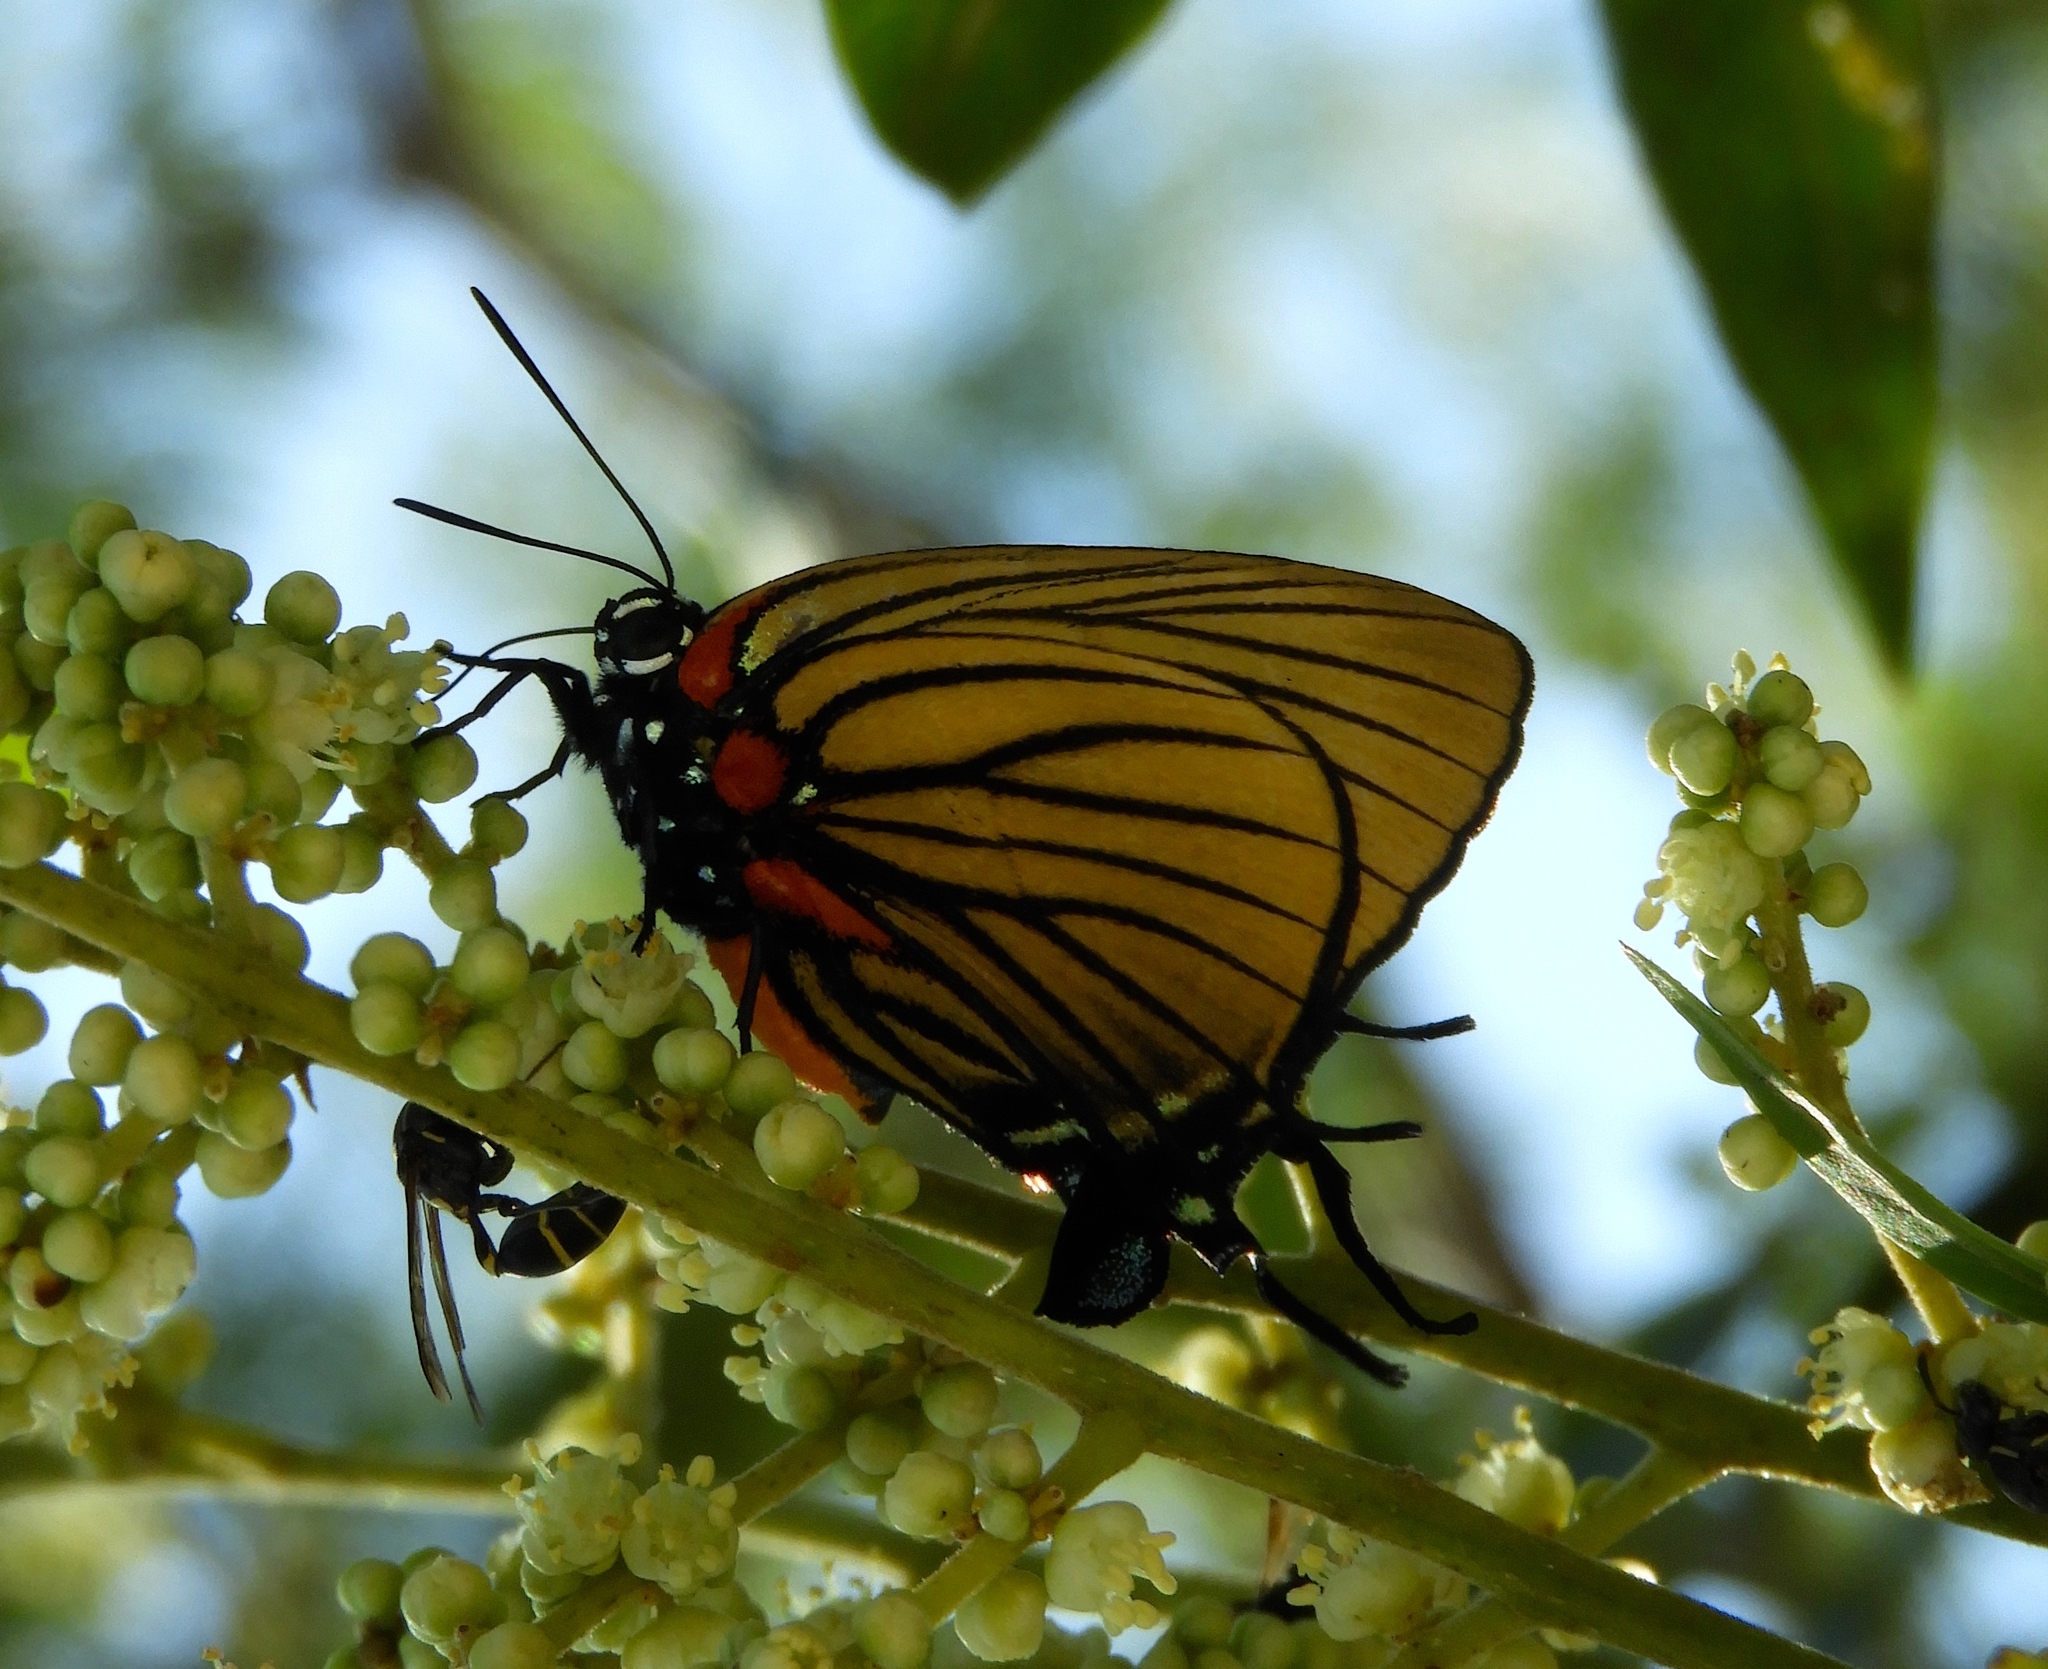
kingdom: Animalia
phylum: Arthropoda
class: Insecta
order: Lepidoptera
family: Lycaenidae
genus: Thecla
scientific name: Thecla polybe
